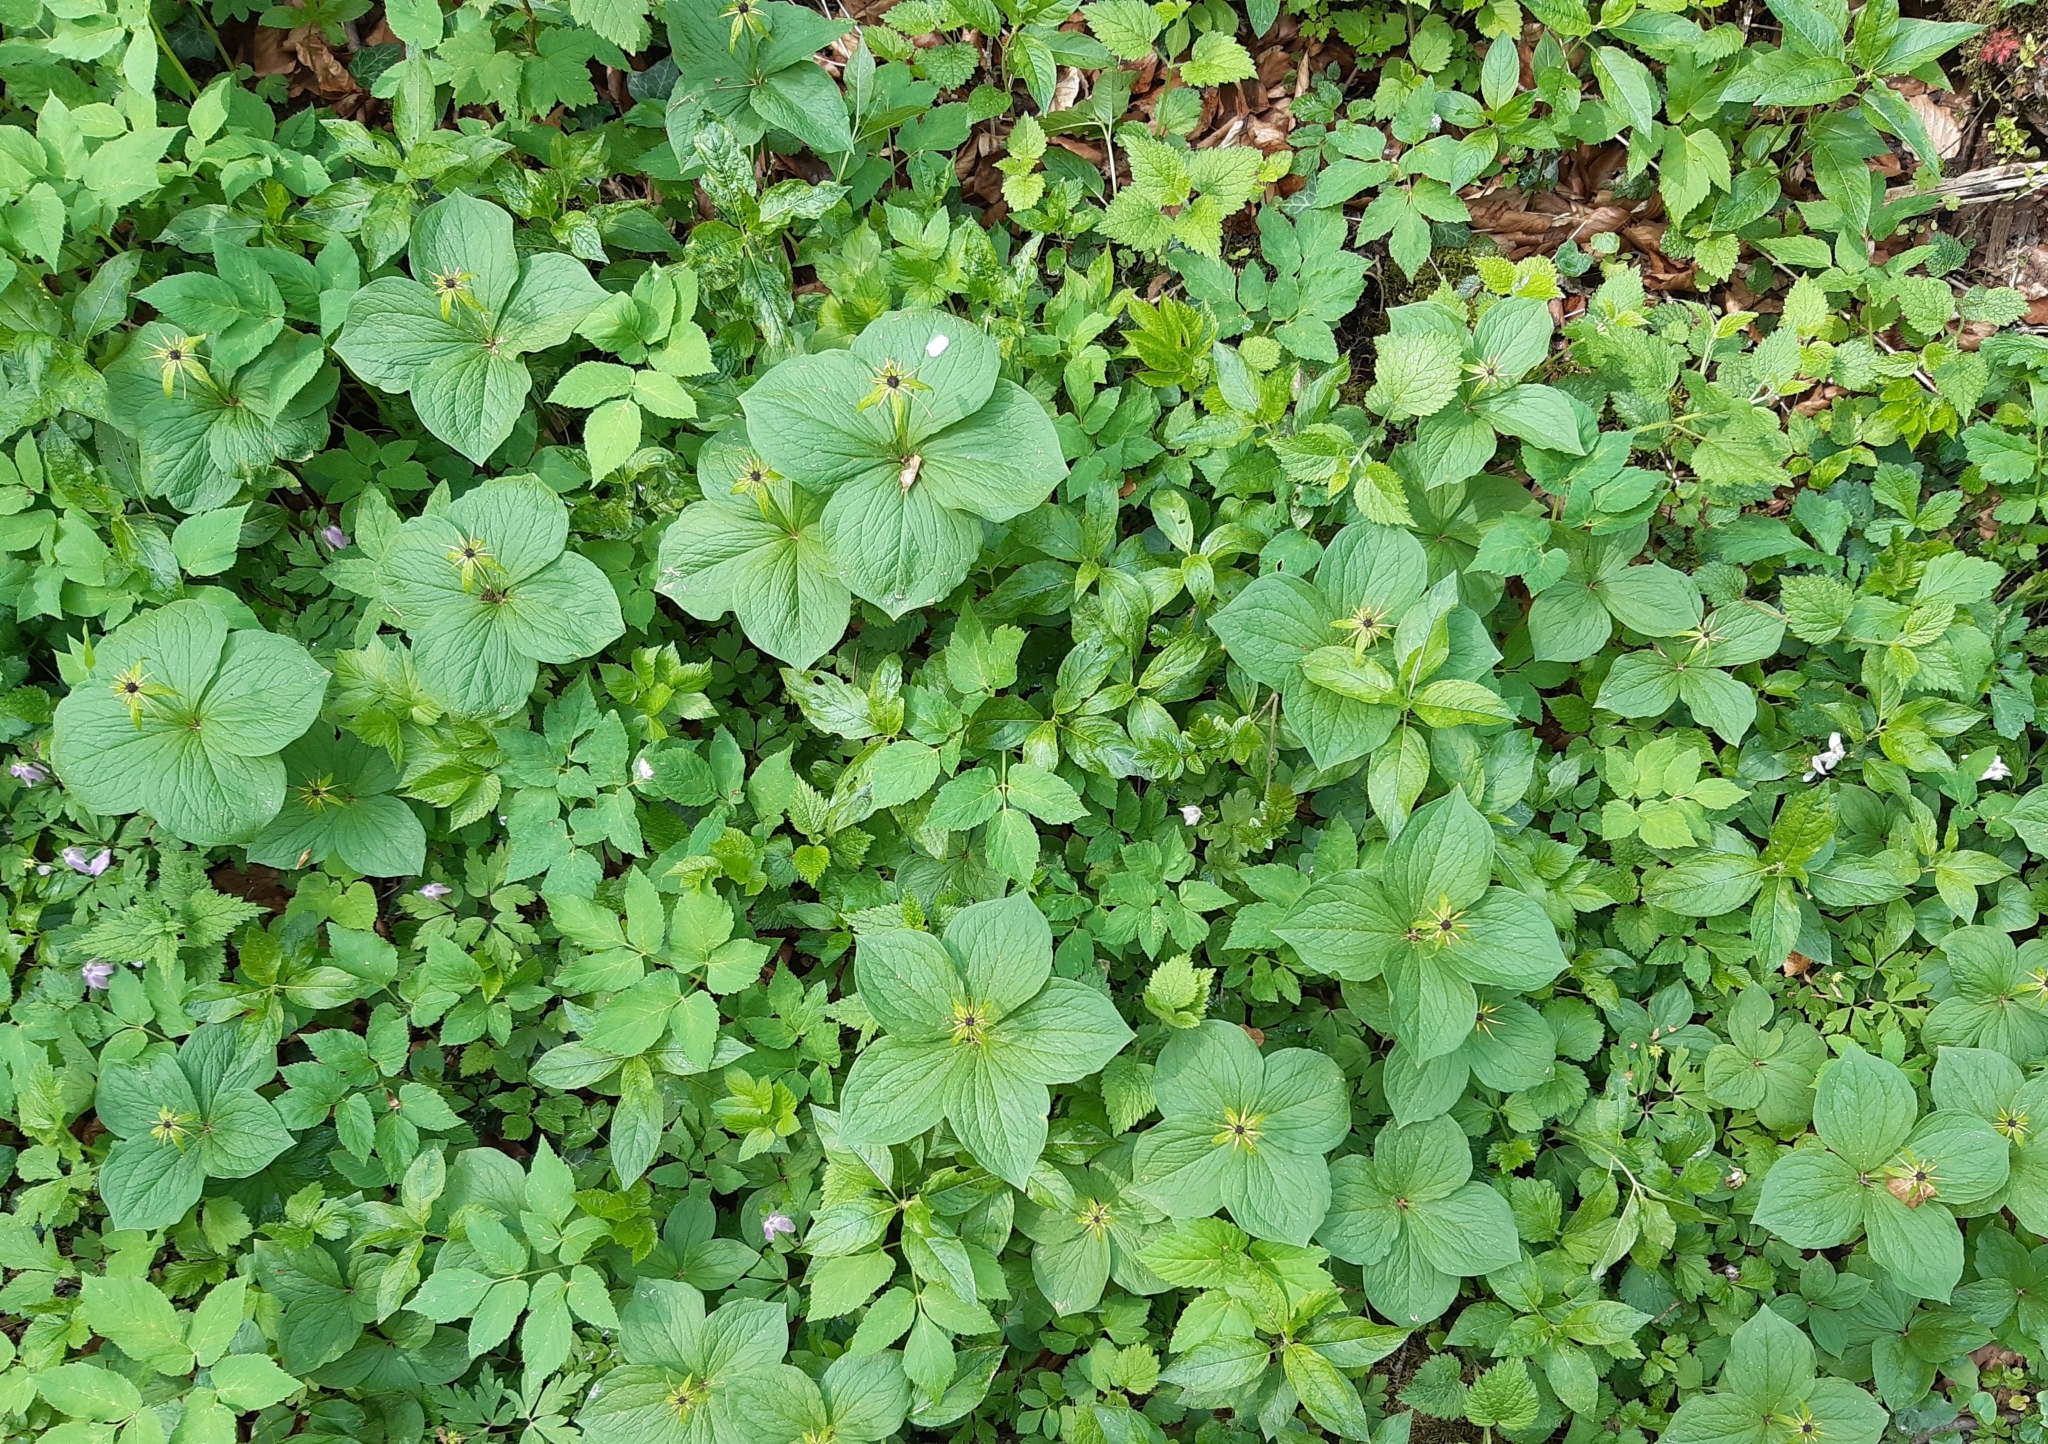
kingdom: Plantae
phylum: Tracheophyta
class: Liliopsida
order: Liliales
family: Melanthiaceae
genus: Paris
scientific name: Paris quadrifolia
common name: Herb-paris
